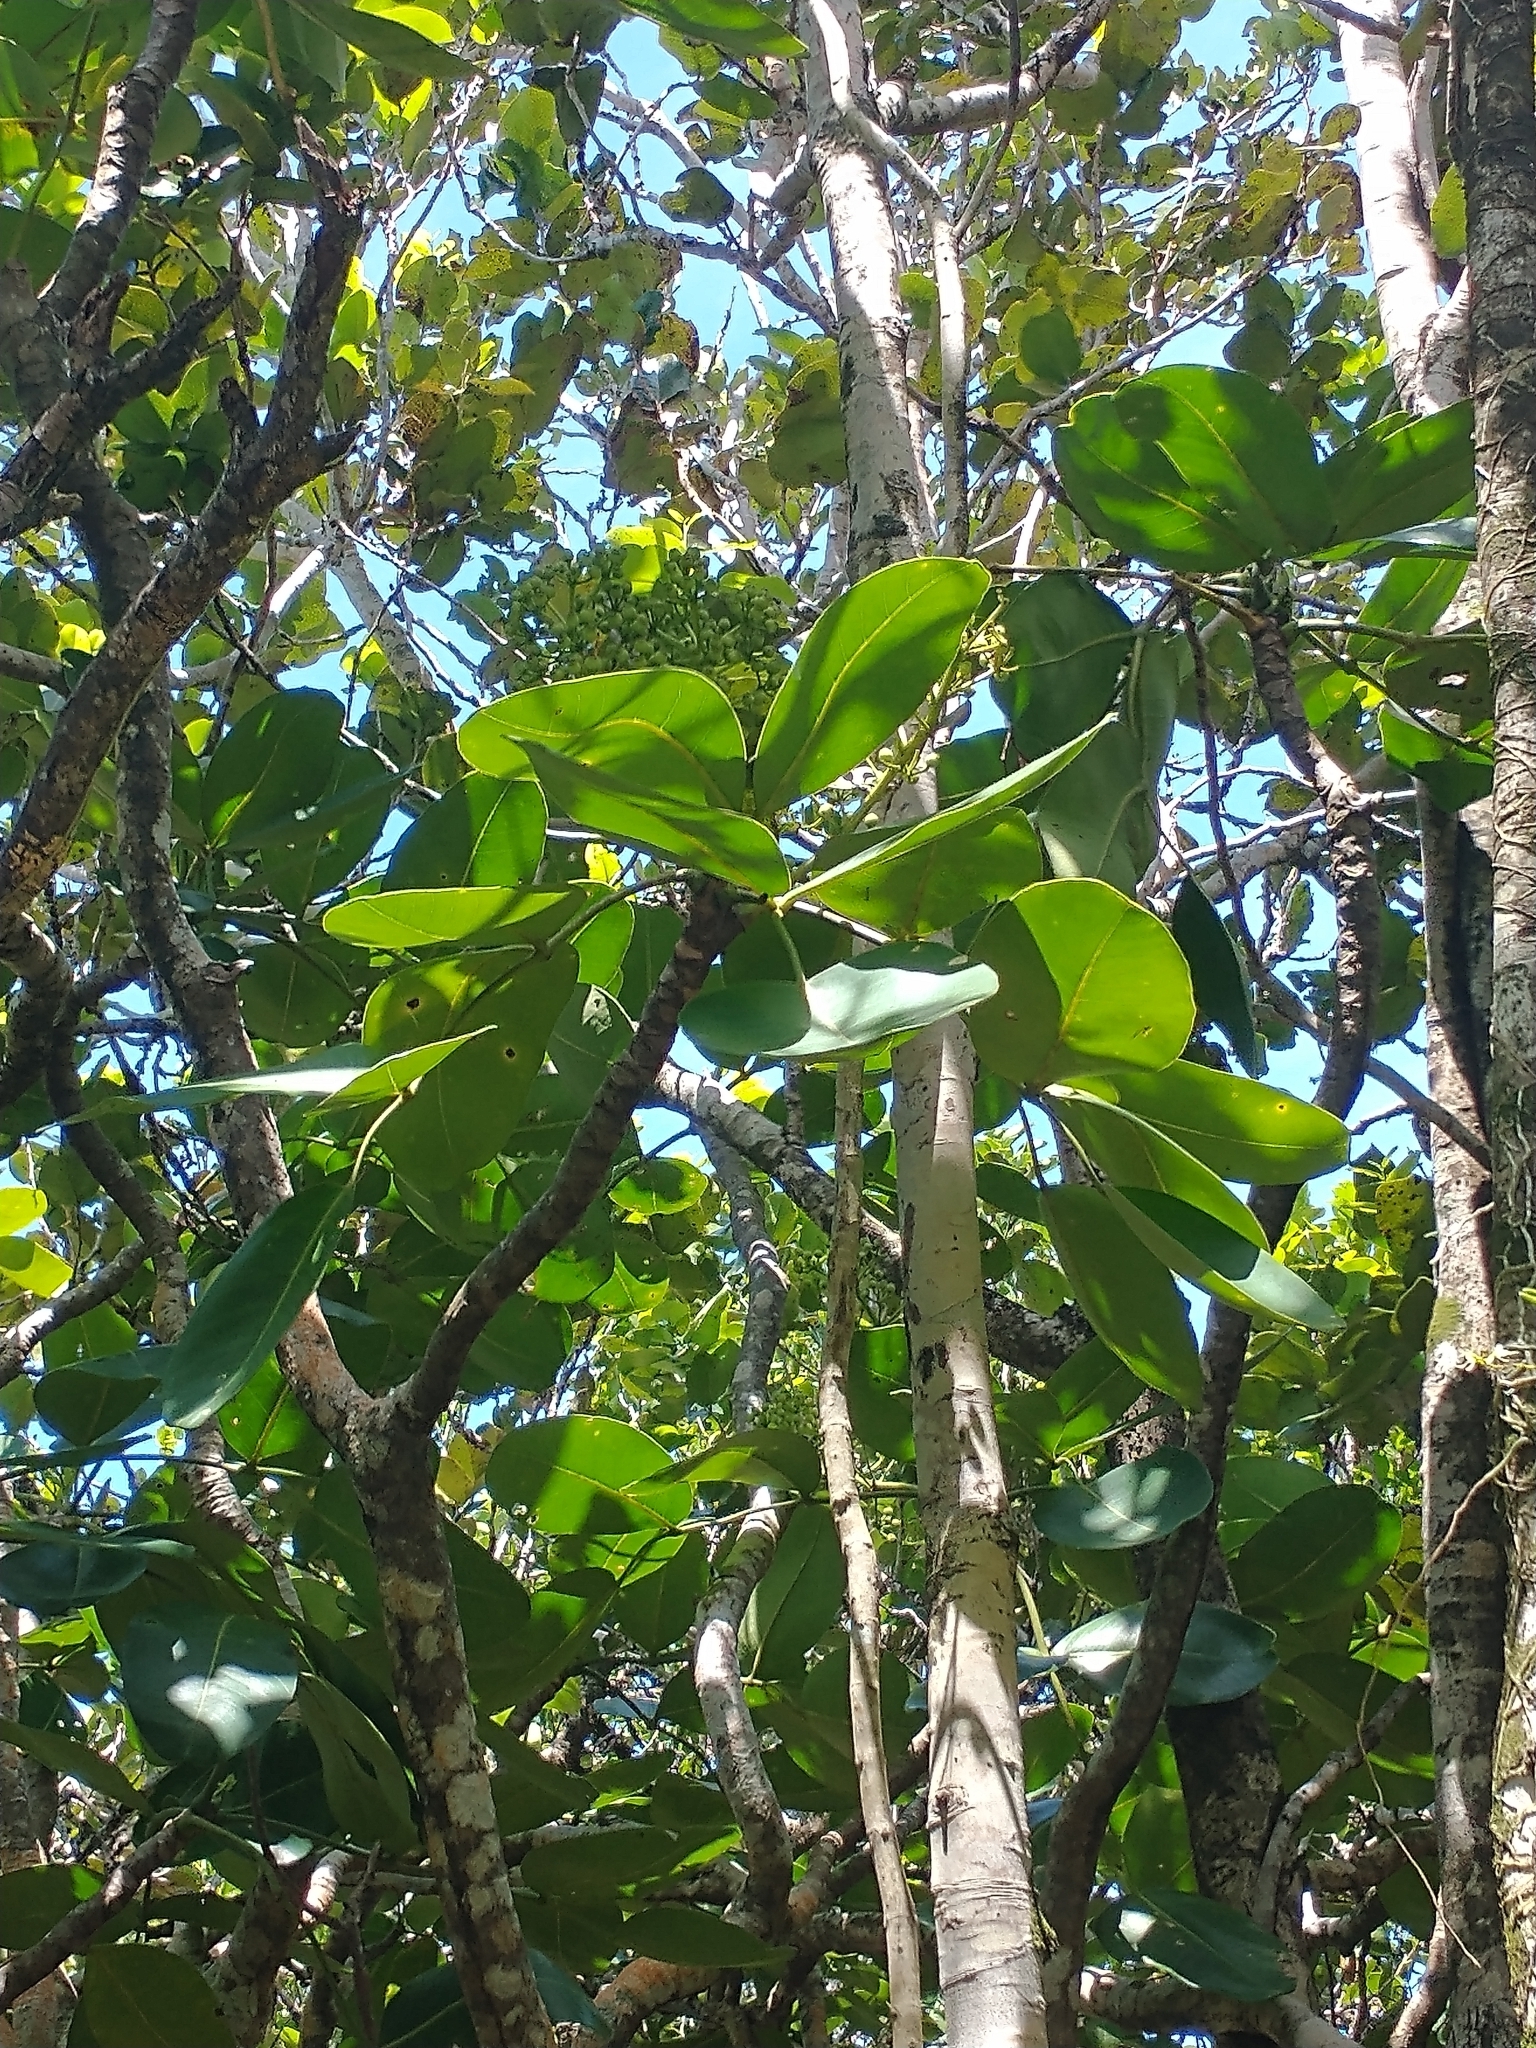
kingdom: Plantae
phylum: Tracheophyta
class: Magnoliopsida
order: Ericales
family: Ebenaceae
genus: Diospyros
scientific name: Diospyros egrettarum
